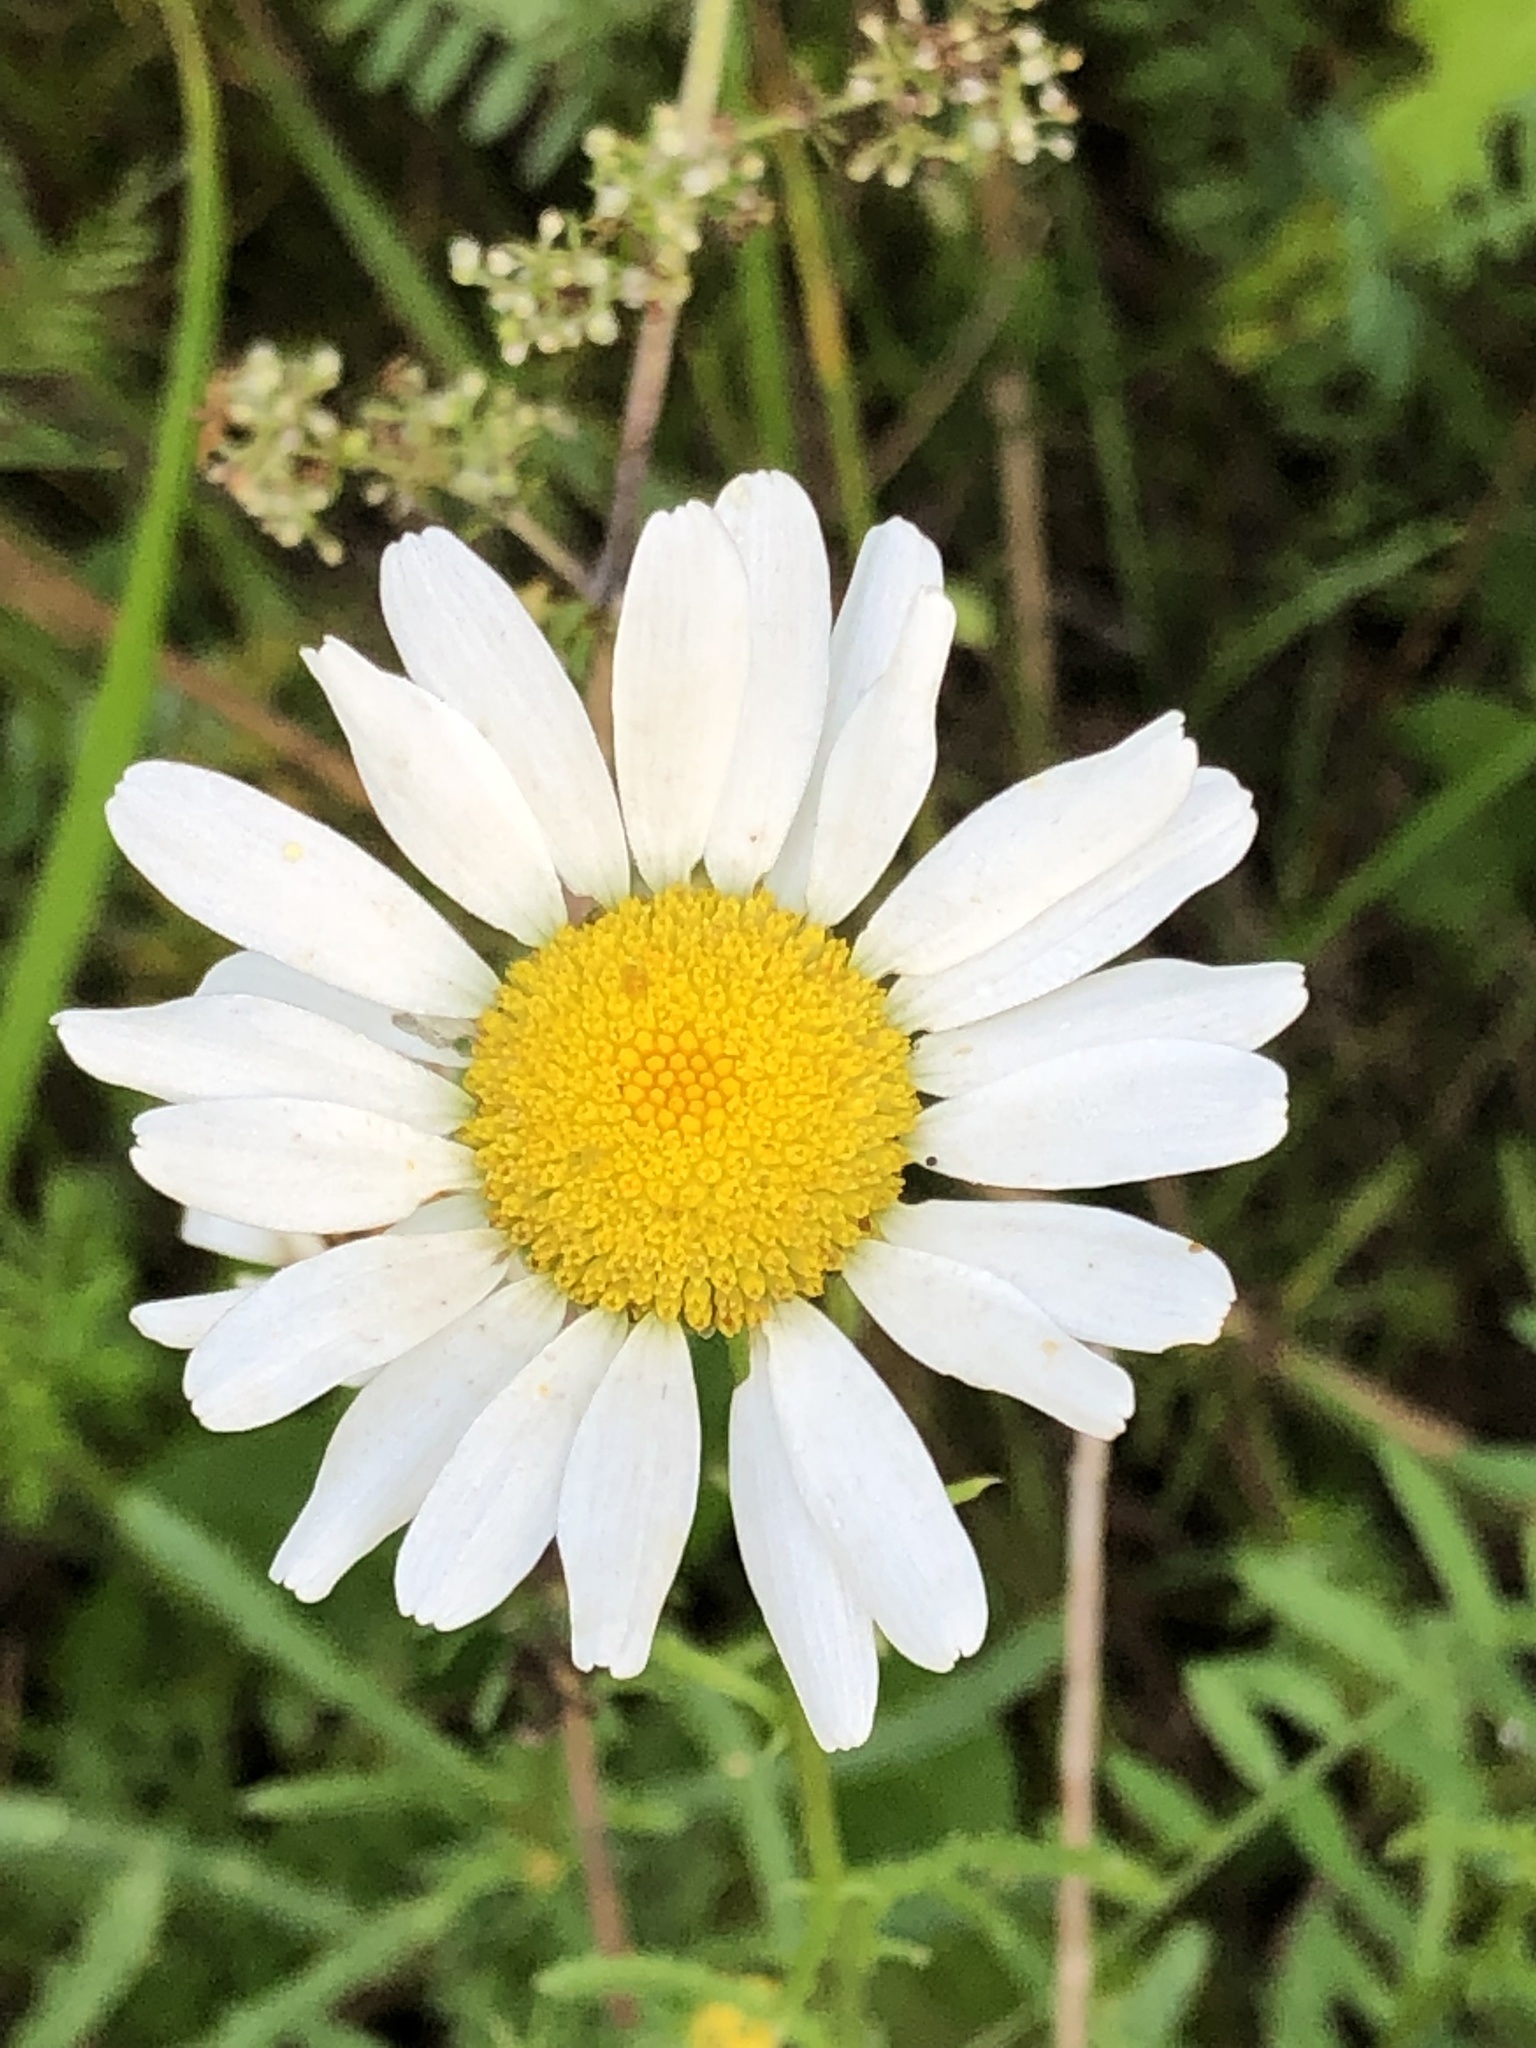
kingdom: Plantae
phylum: Tracheophyta
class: Magnoliopsida
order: Asterales
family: Asteraceae
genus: Leucanthemum
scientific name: Leucanthemum vulgare
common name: Oxeye daisy
